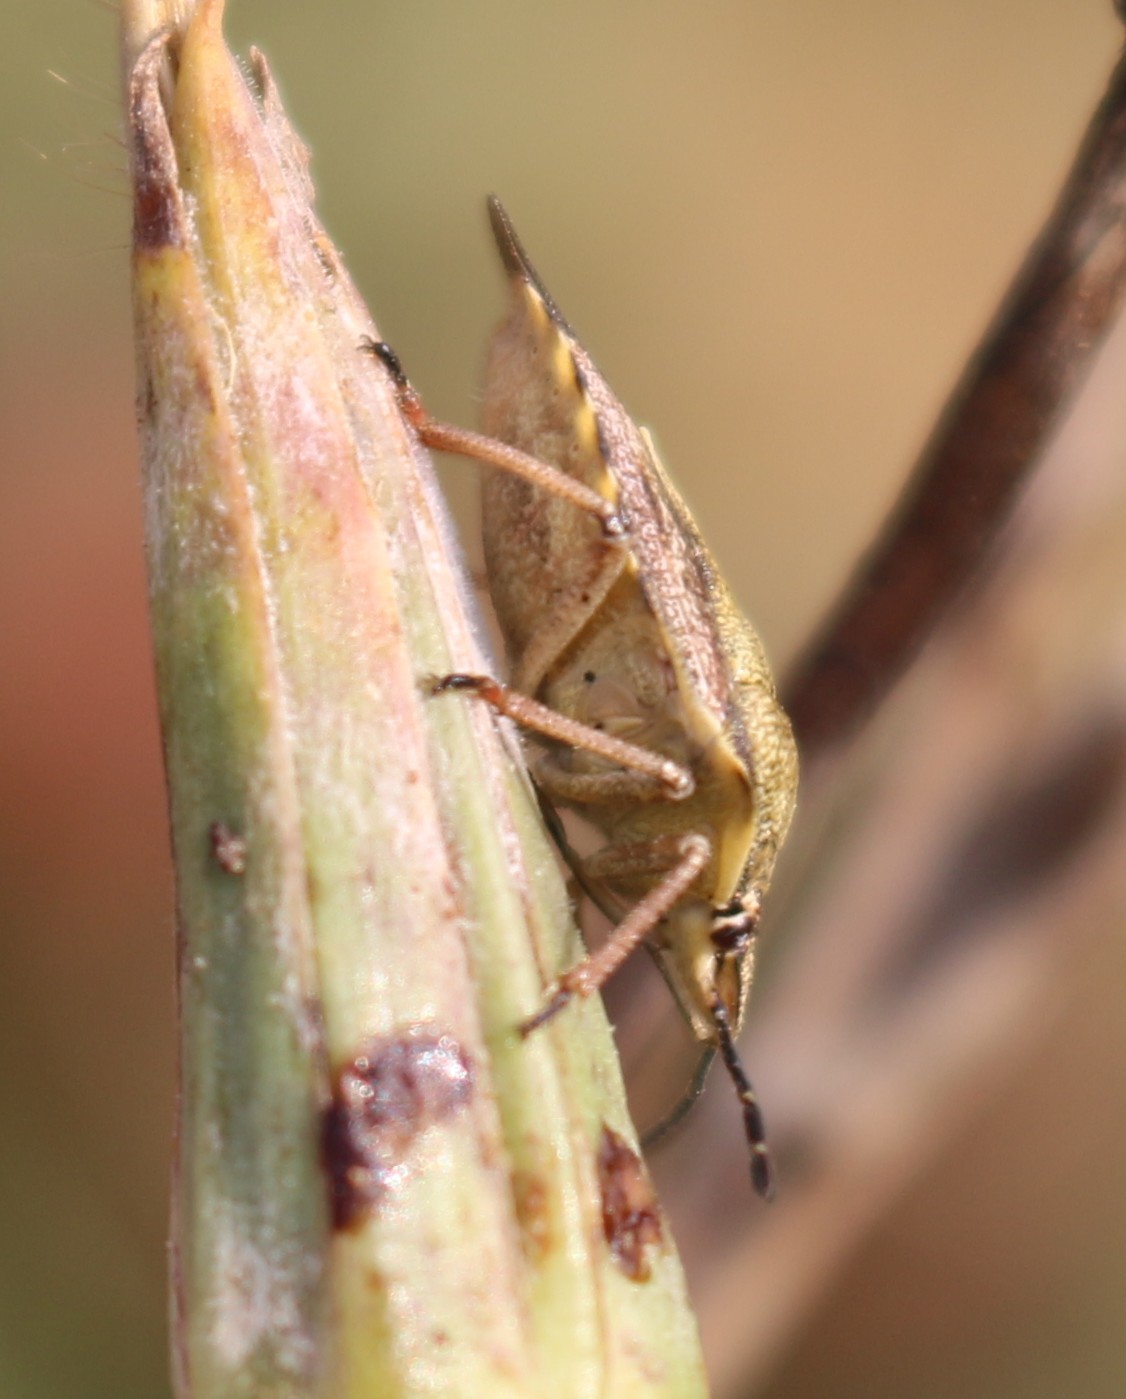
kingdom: Animalia
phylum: Arthropoda
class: Insecta
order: Hemiptera
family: Pentatomidae
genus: Carpocoris
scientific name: Carpocoris purpureipennis
